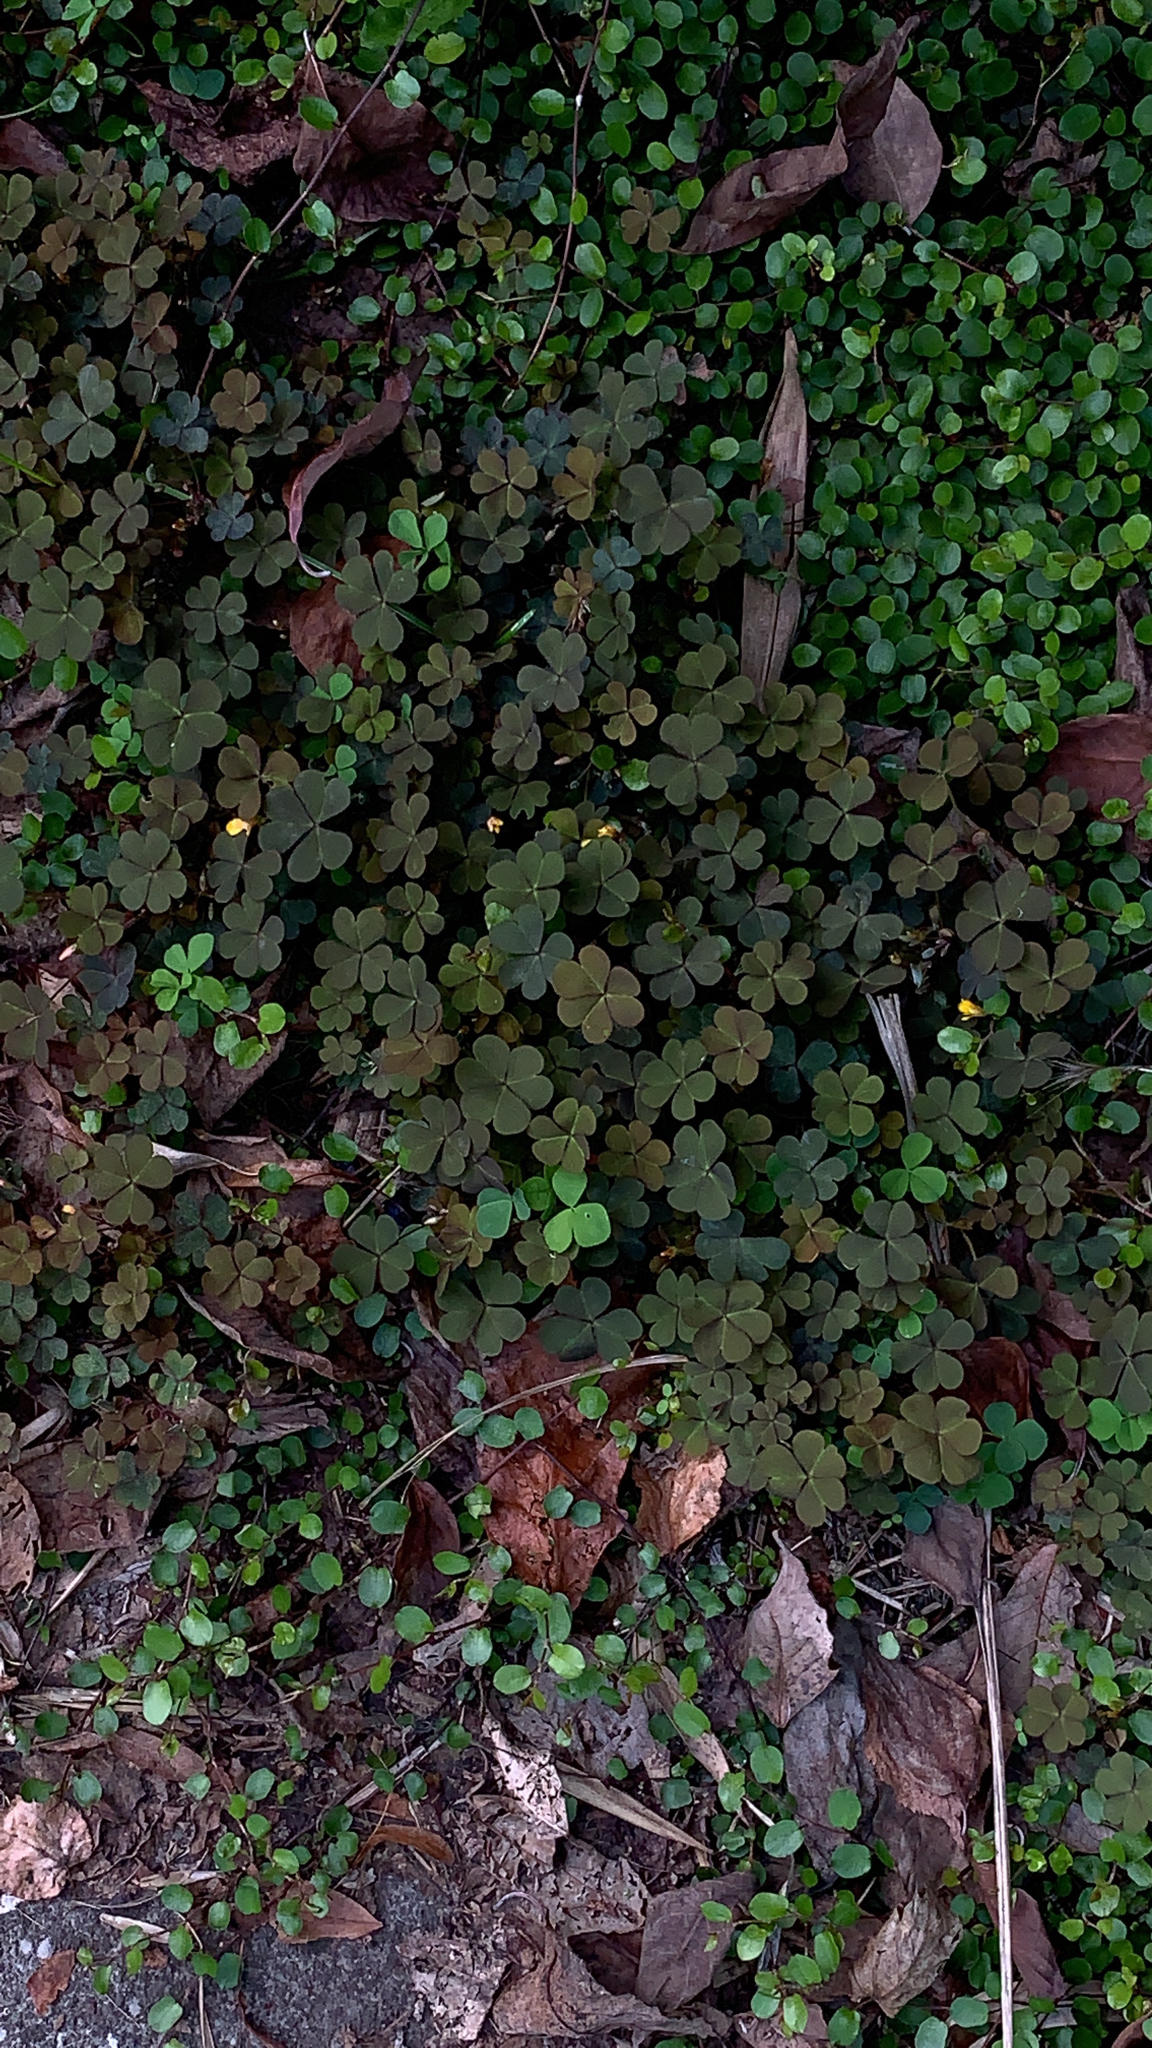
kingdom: Plantae
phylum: Tracheophyta
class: Magnoliopsida
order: Oxalidales
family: Oxalidaceae
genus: Oxalis
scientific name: Oxalis corniculata
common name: Procumbent yellow-sorrel
